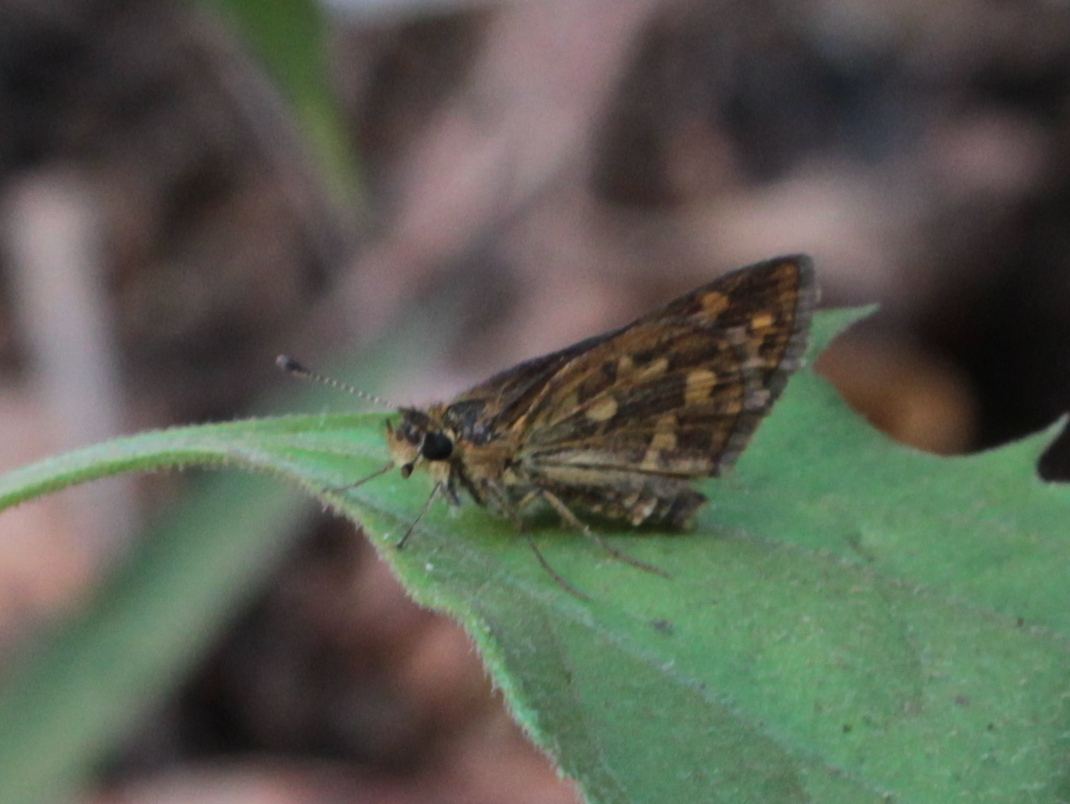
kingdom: Animalia
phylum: Arthropoda
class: Insecta
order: Lepidoptera
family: Hesperiidae
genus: Taractrocera
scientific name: Taractrocera ceramas
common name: Tamil grass dart
